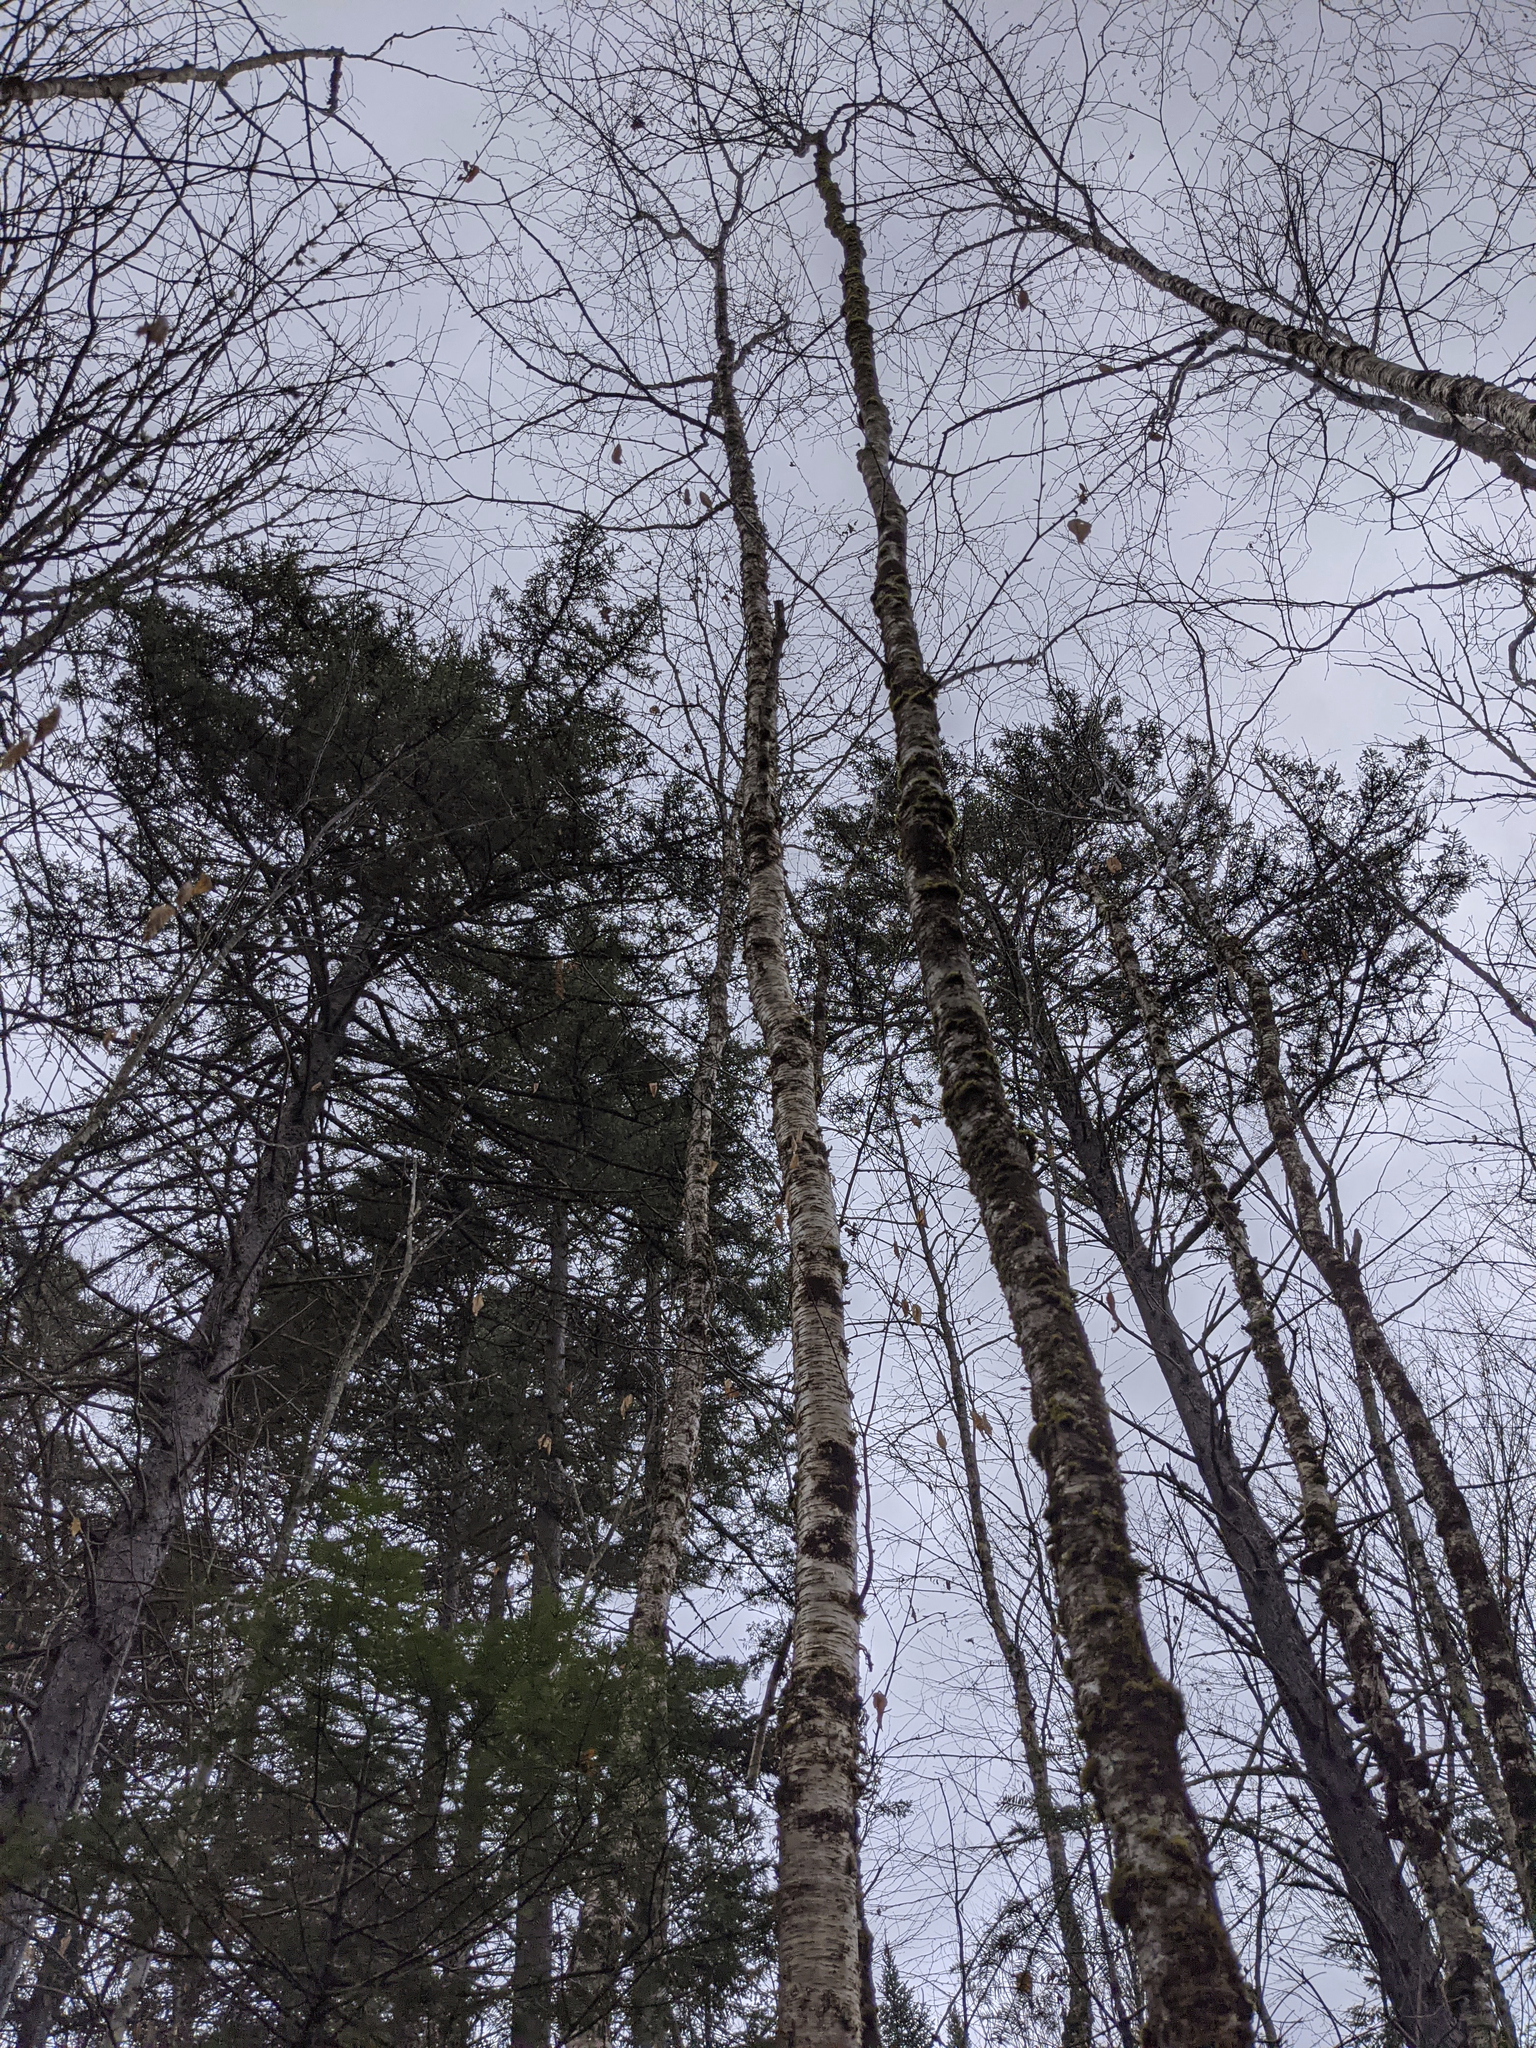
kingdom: Plantae
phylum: Tracheophyta
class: Magnoliopsida
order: Fagales
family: Betulaceae
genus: Betula
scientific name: Betula alleghaniensis
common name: Yellow birch
